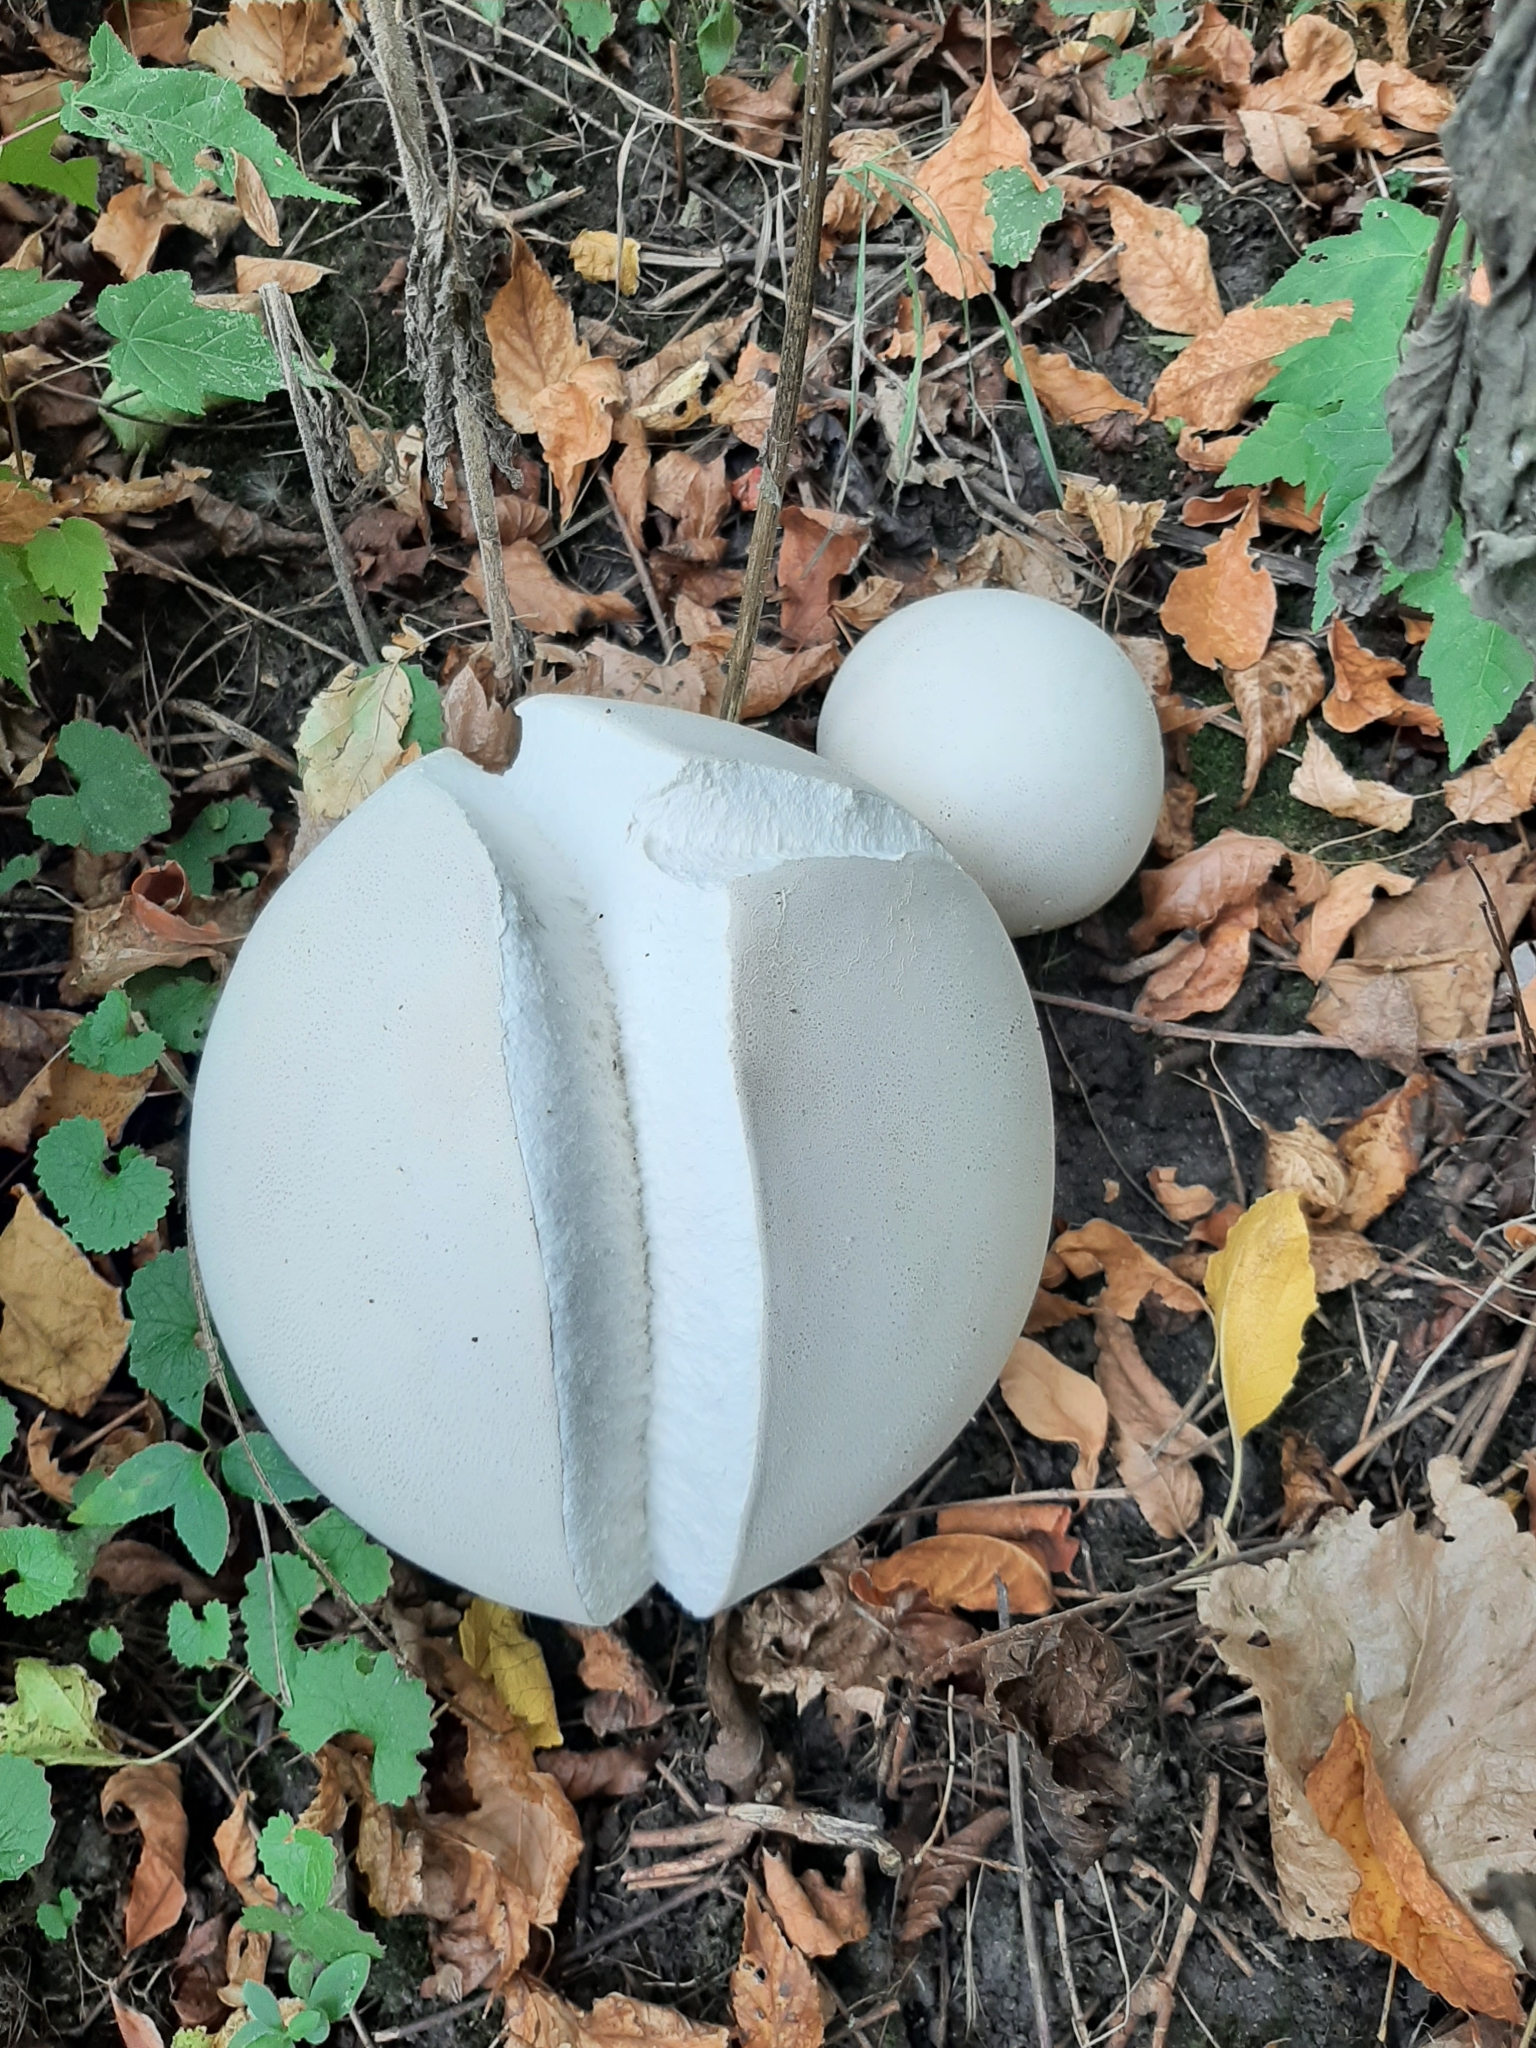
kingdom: Fungi
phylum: Basidiomycota
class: Agaricomycetes
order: Agaricales
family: Lycoperdaceae
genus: Calvatia
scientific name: Calvatia gigantea
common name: Giant puffball
